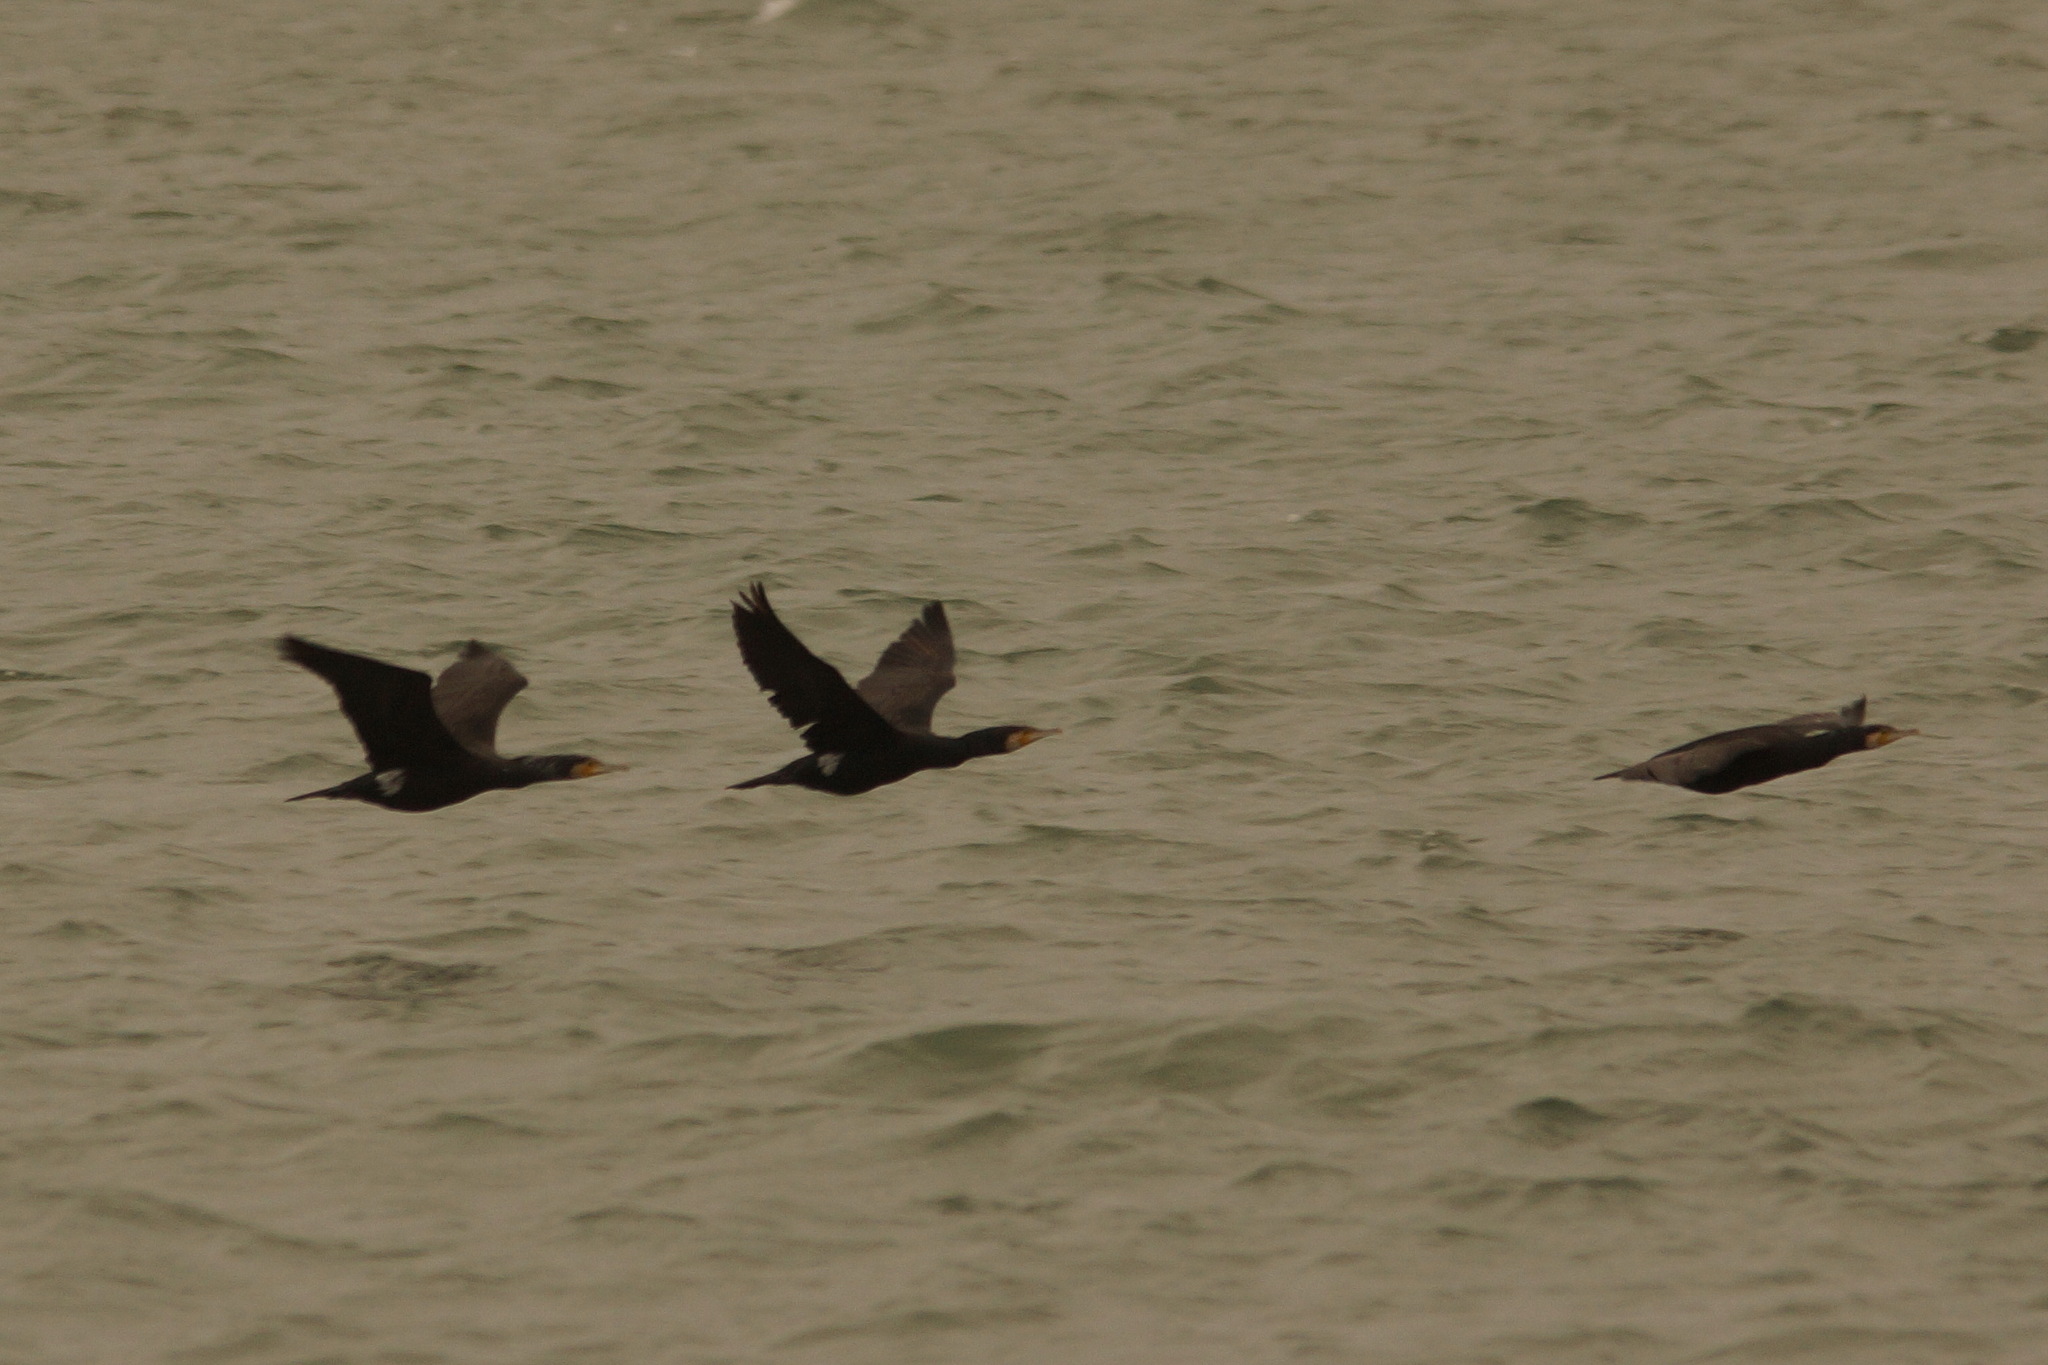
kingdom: Animalia
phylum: Chordata
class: Aves
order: Suliformes
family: Phalacrocoracidae
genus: Phalacrocorax
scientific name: Phalacrocorax carbo
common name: Great cormorant
